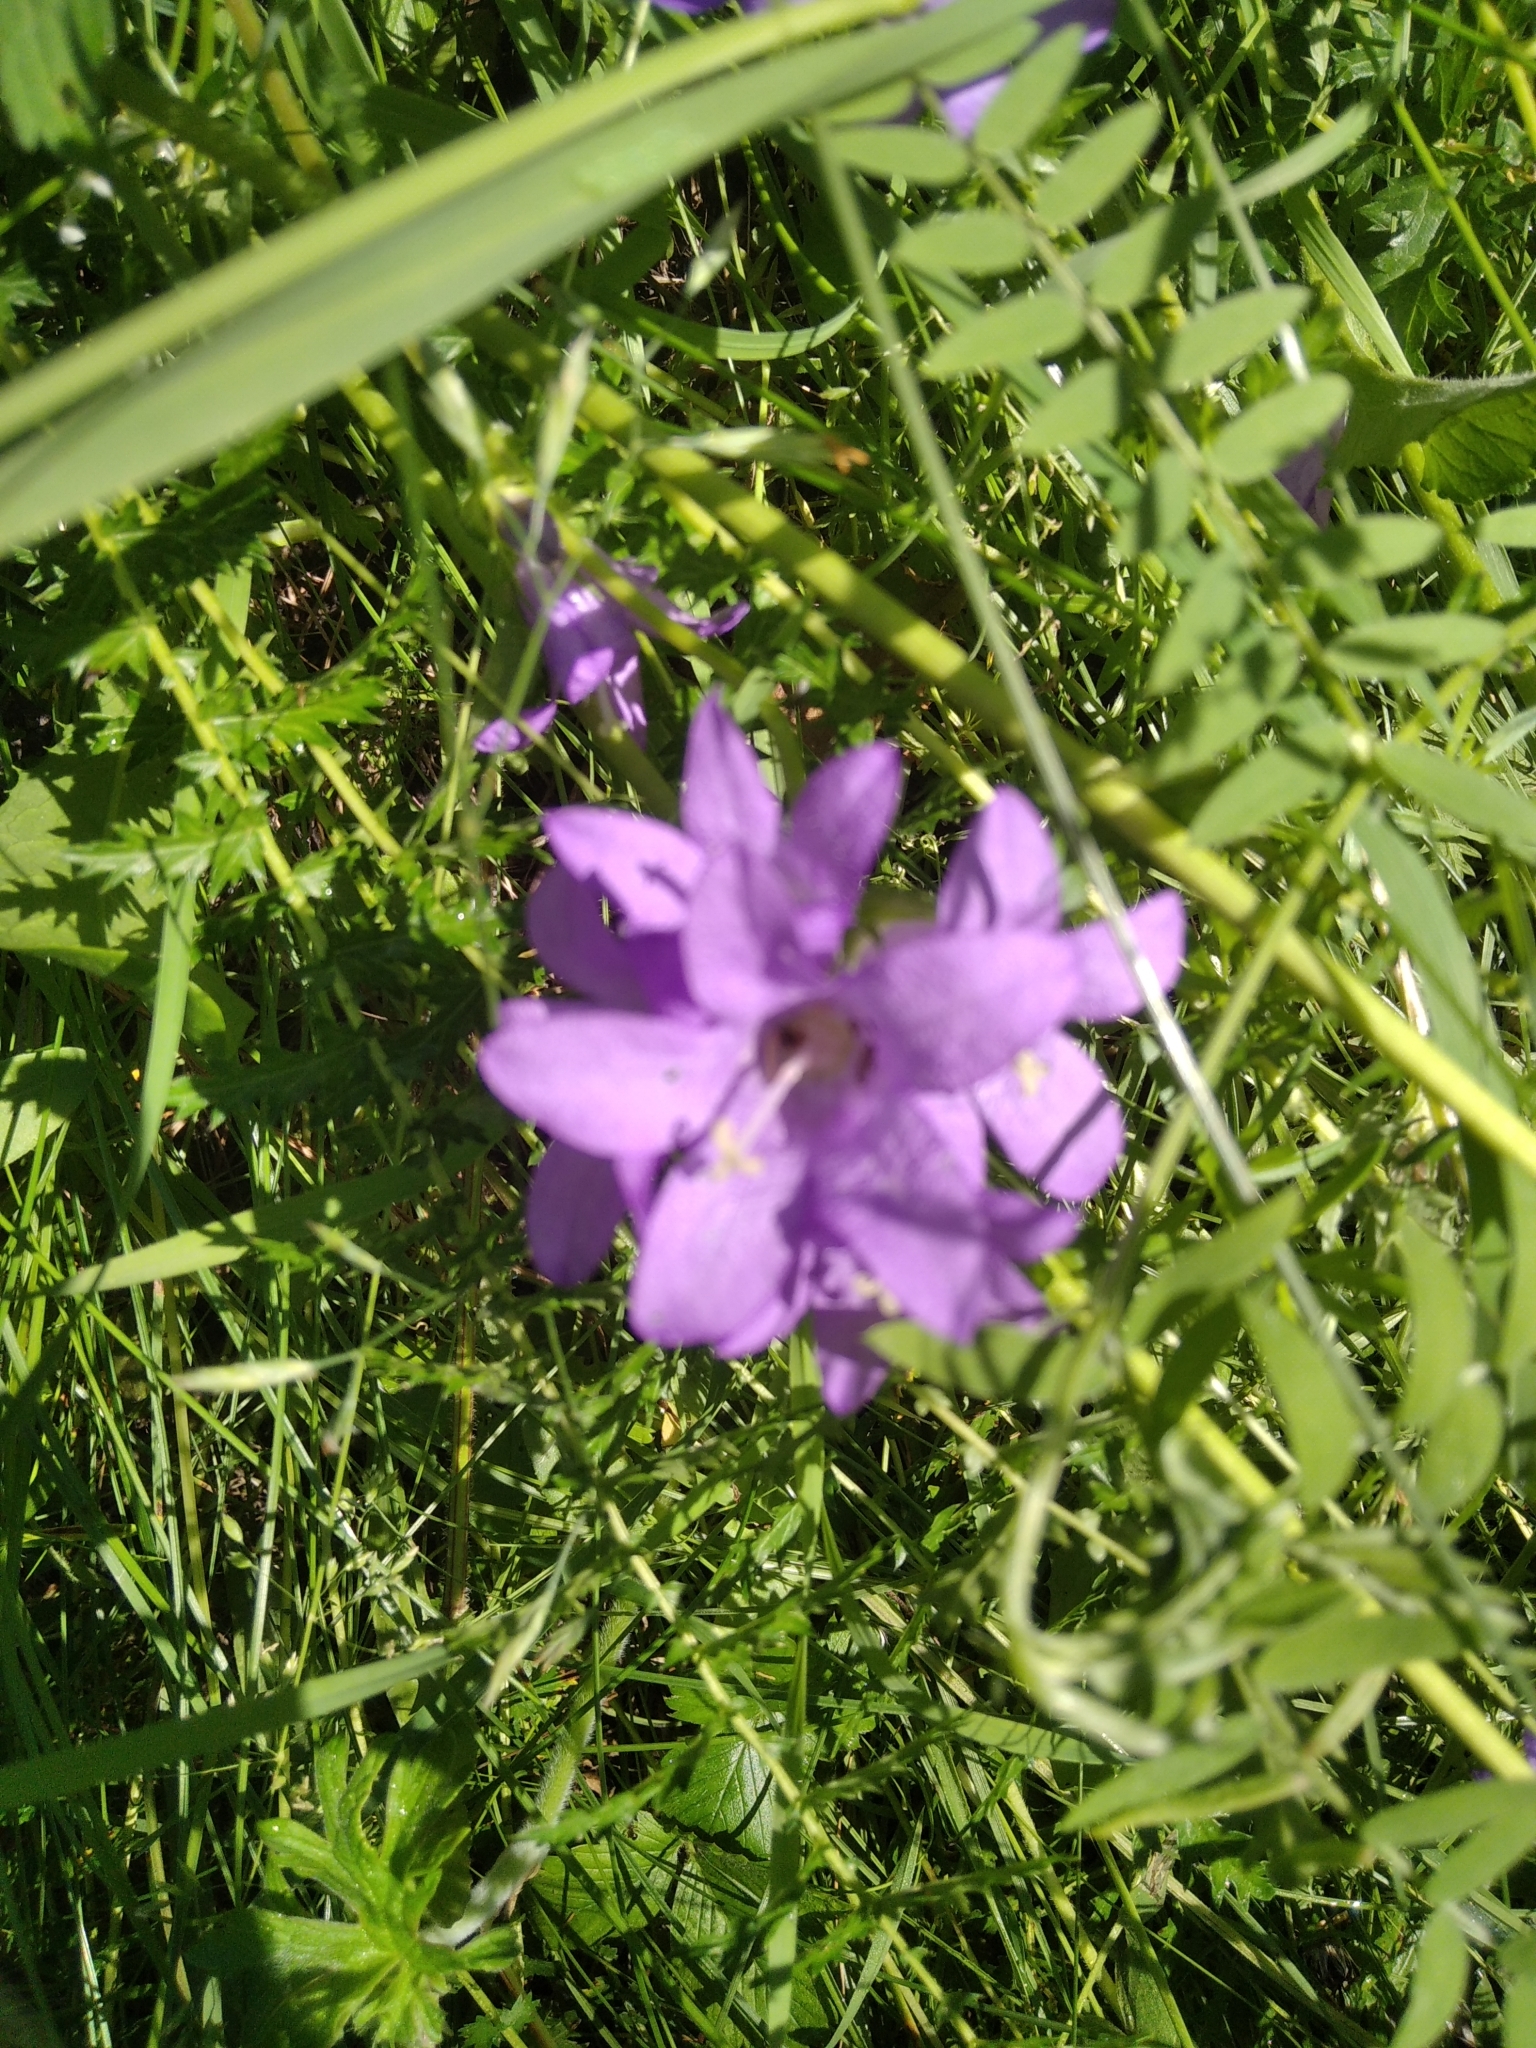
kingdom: Plantae
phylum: Tracheophyta
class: Magnoliopsida
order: Asterales
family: Campanulaceae
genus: Campanula
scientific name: Campanula glomerata
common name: Clustered bellflower
